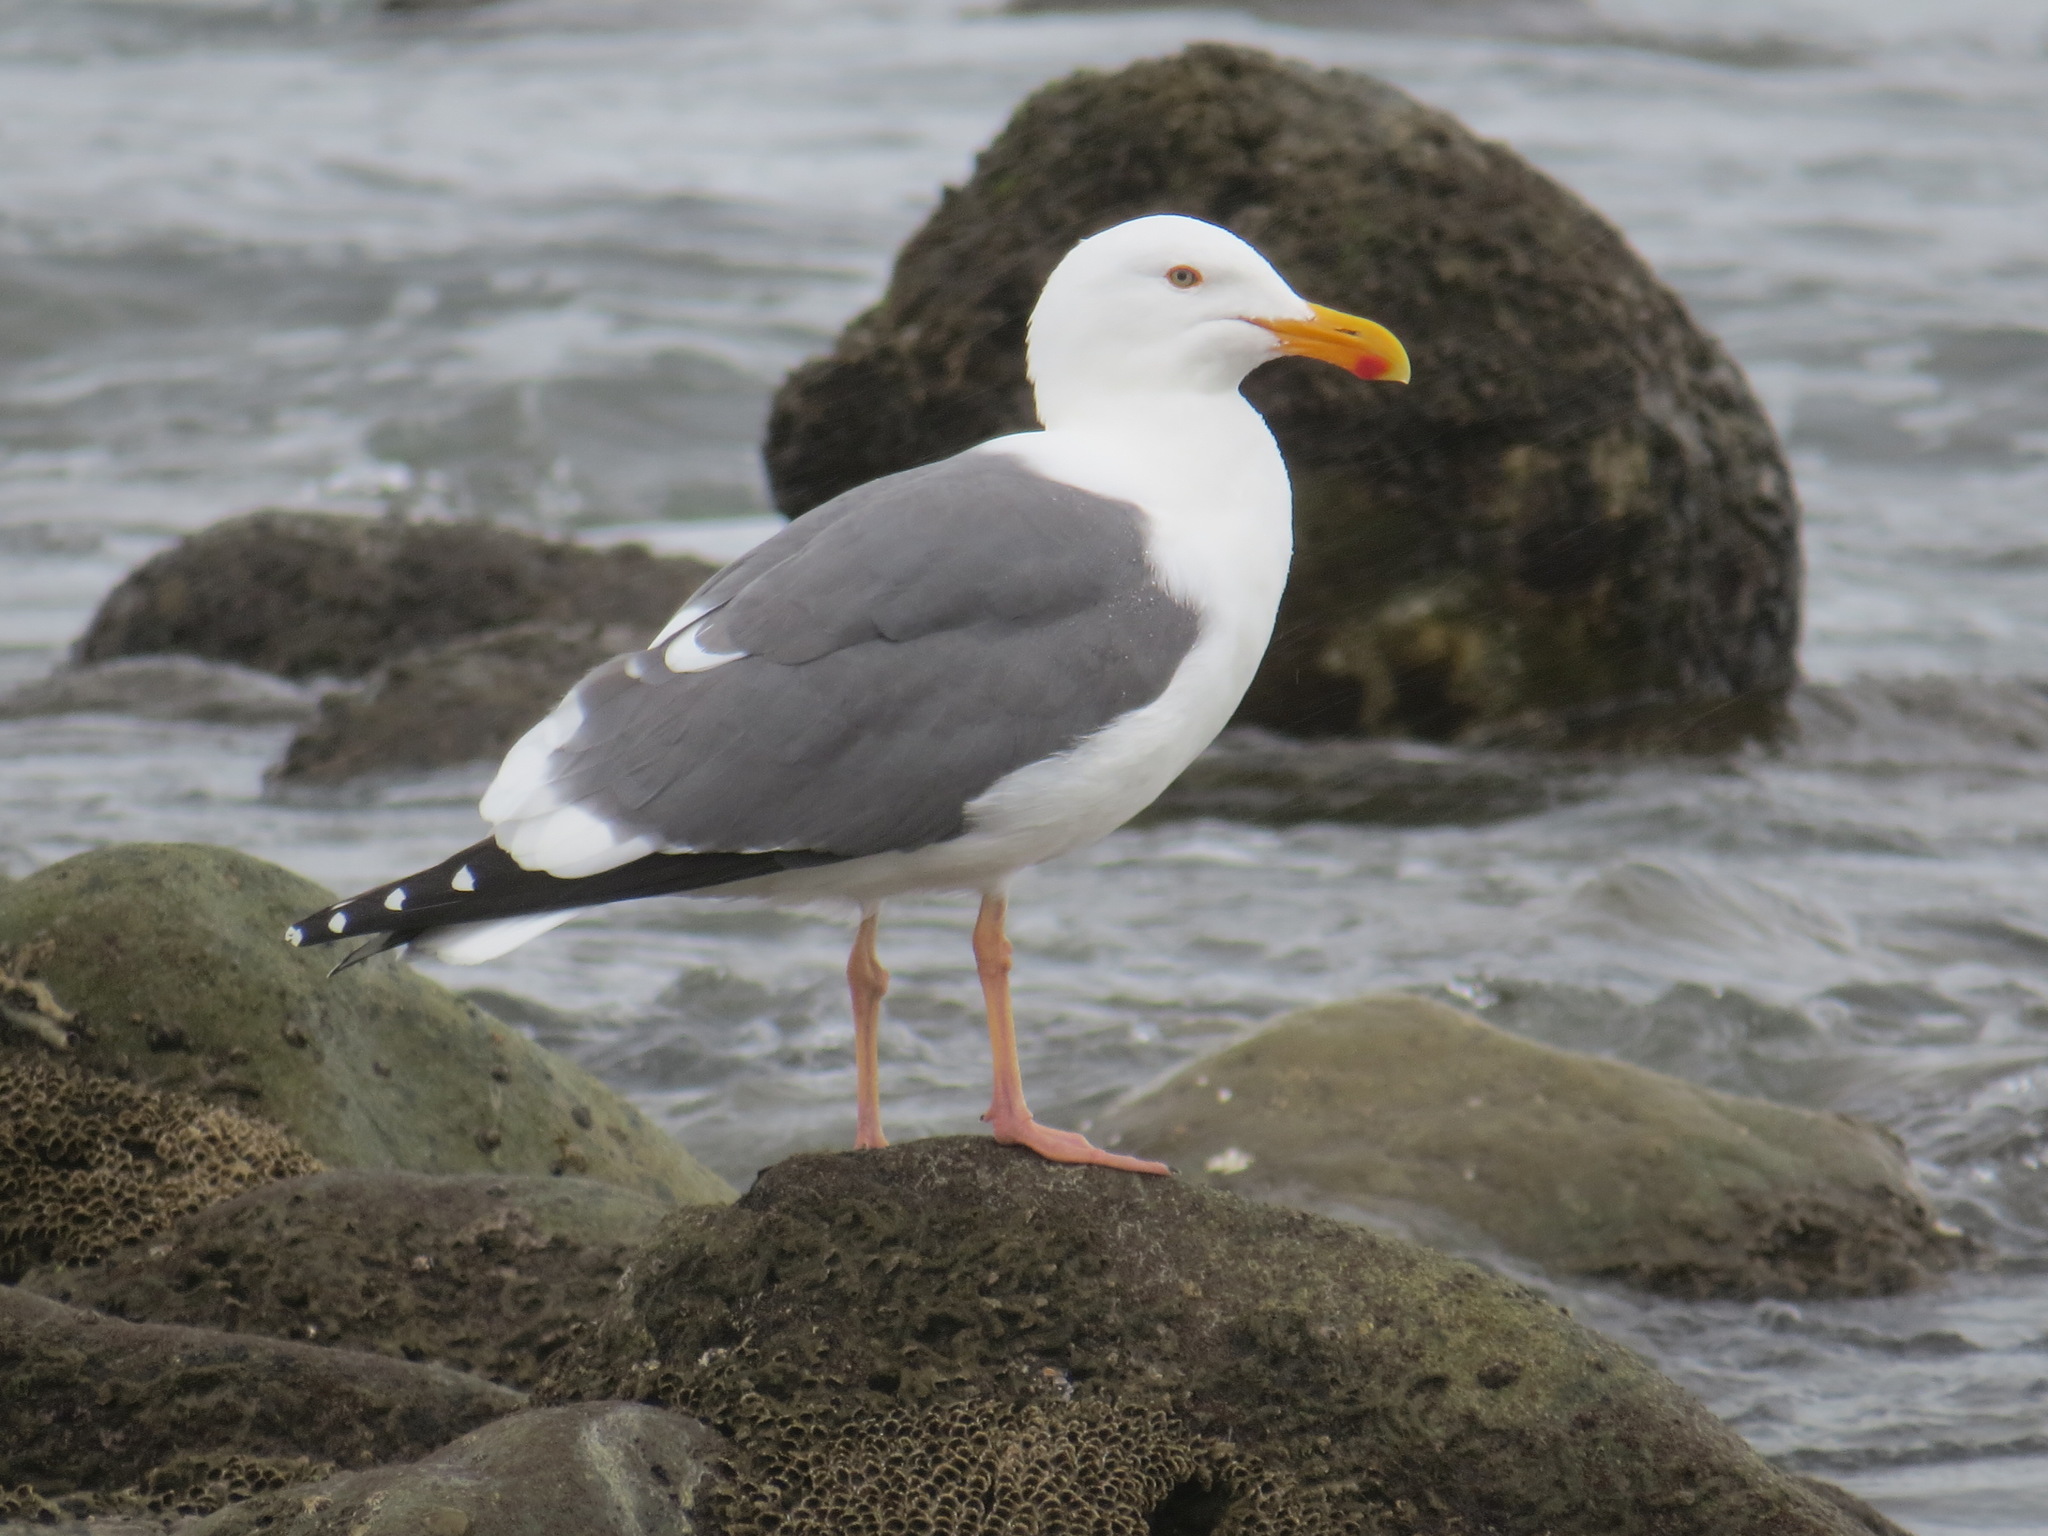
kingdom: Animalia
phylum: Chordata
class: Aves
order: Charadriiformes
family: Laridae
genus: Larus
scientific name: Larus occidentalis
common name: Western gull
